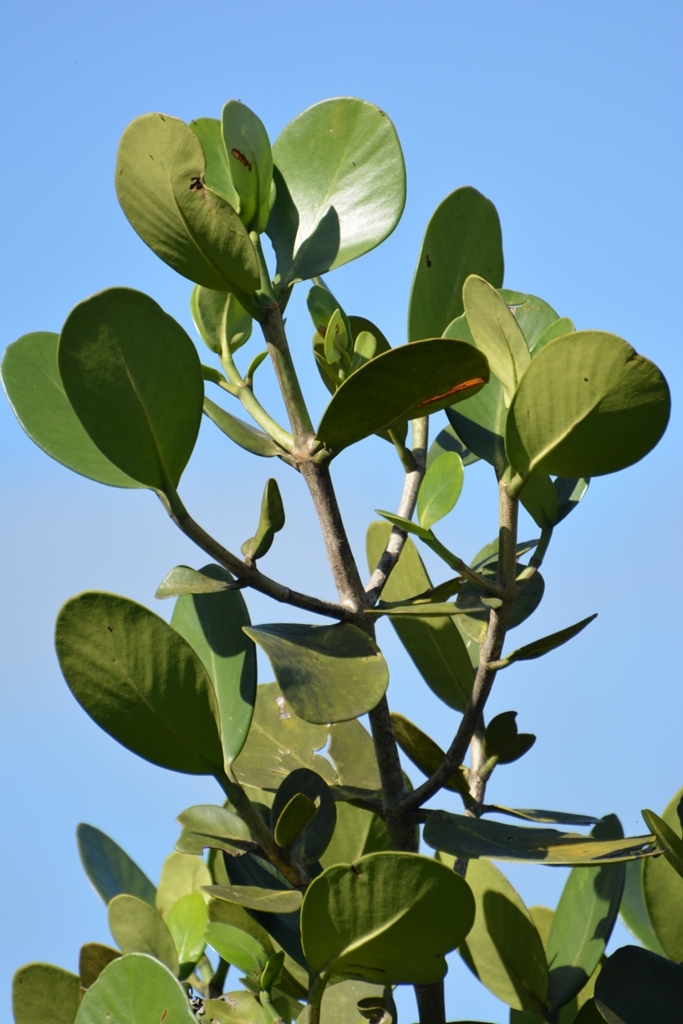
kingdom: Plantae
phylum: Tracheophyta
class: Magnoliopsida
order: Malpighiales
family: Clusiaceae
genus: Clusia
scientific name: Clusia tetratrianthera
